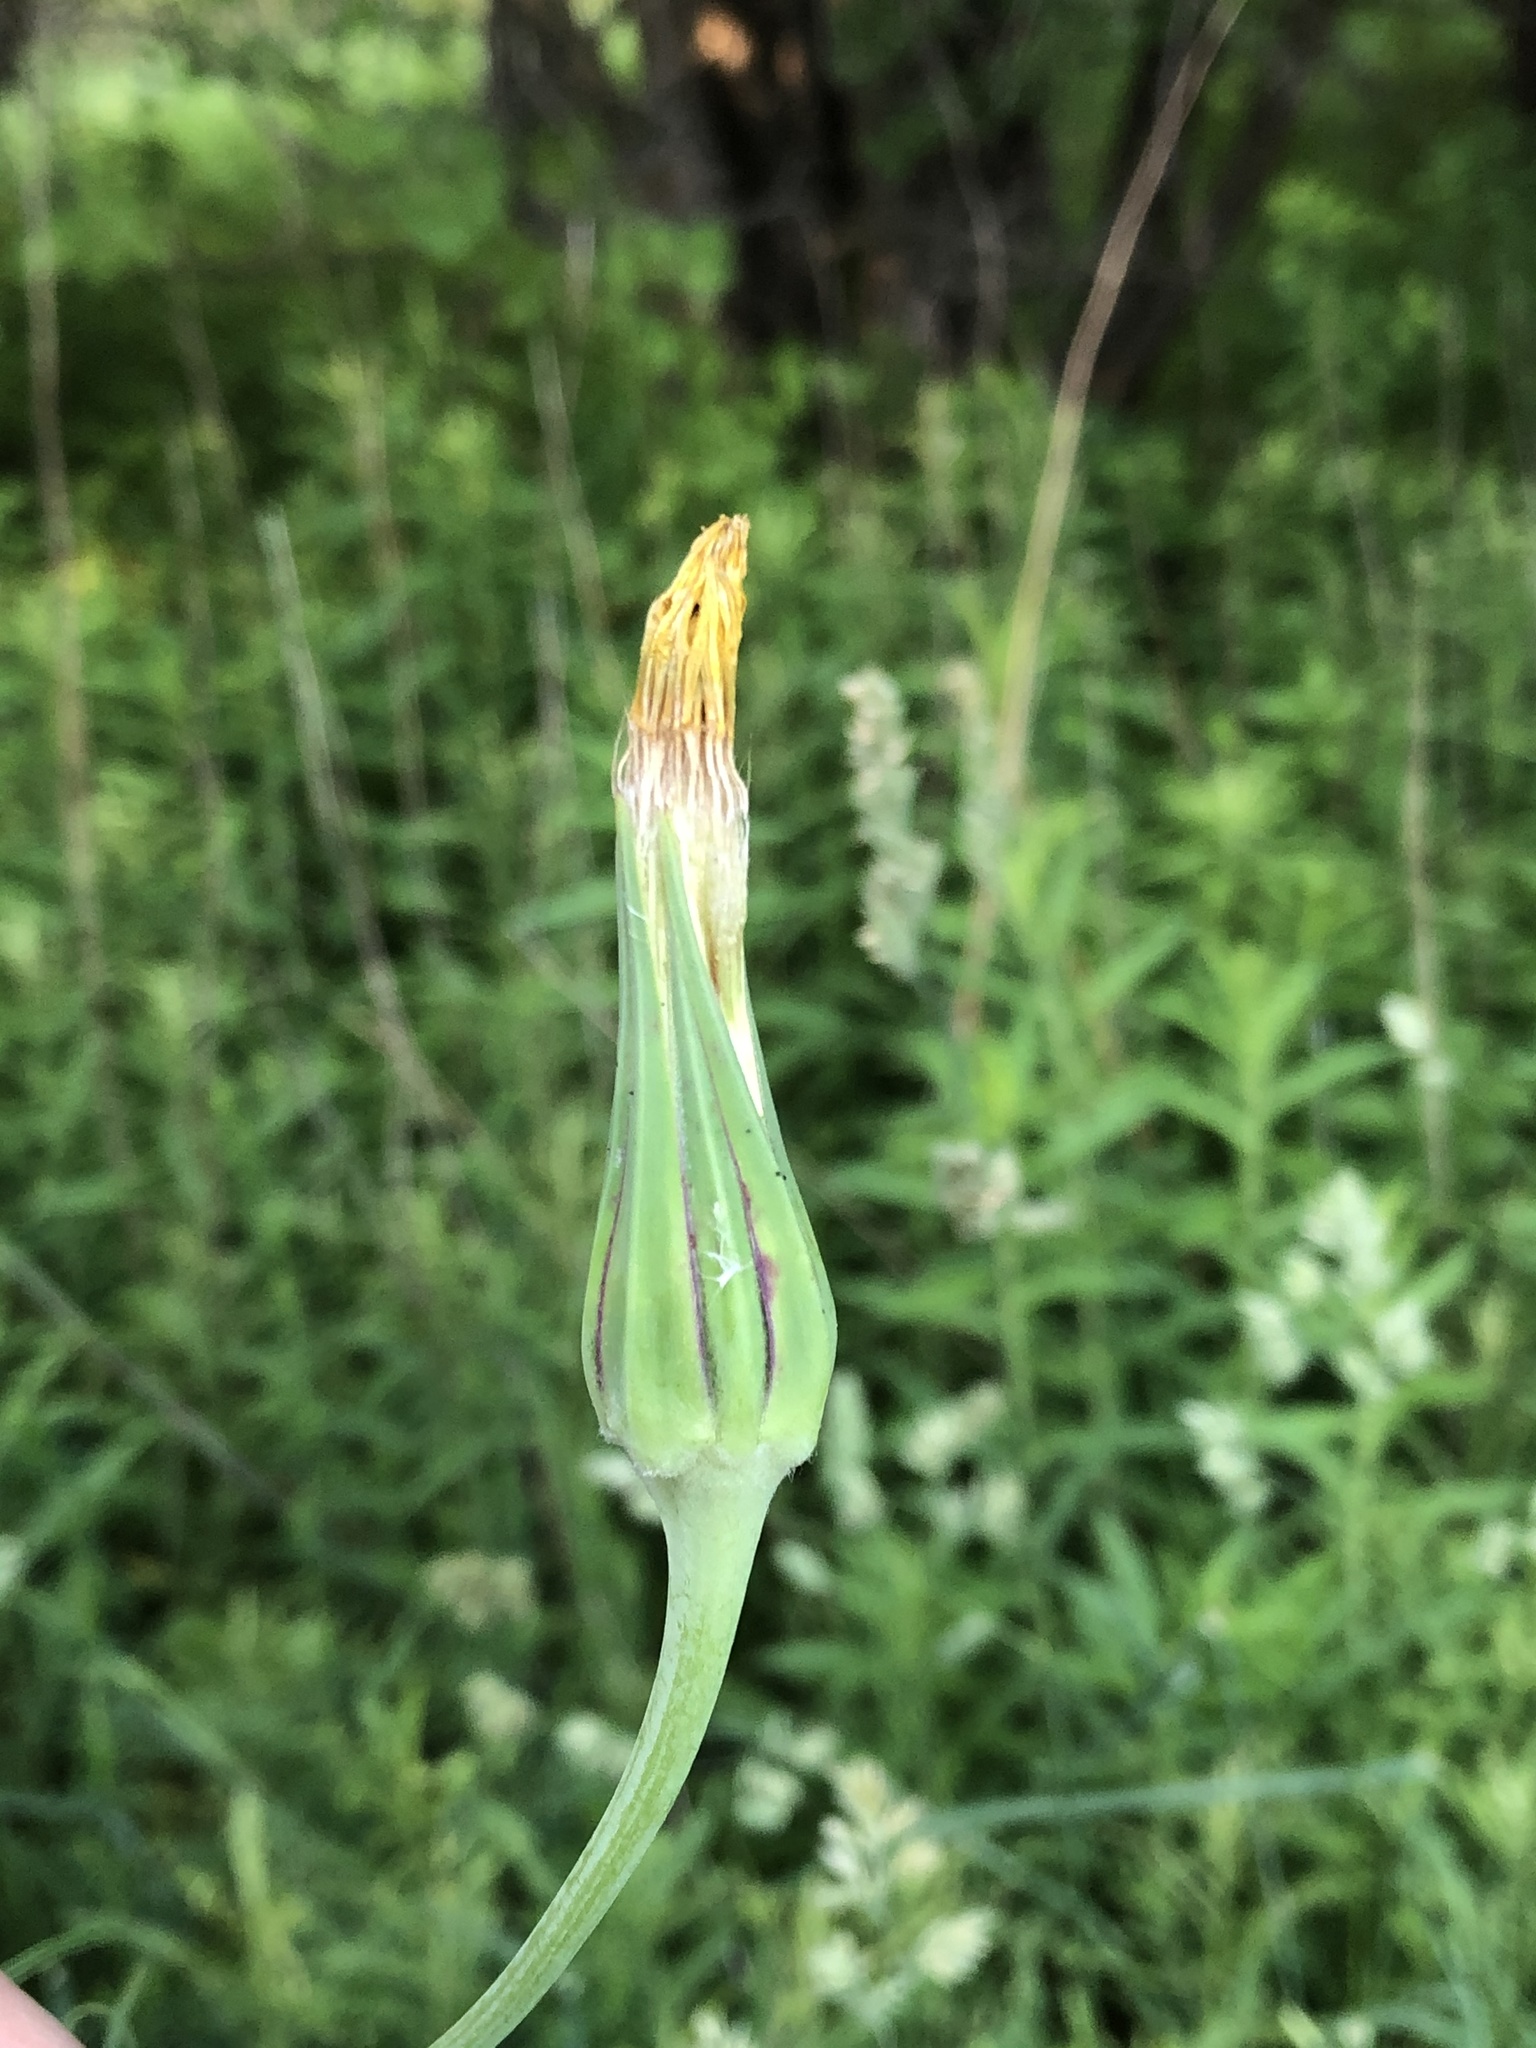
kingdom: Plantae
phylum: Tracheophyta
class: Magnoliopsida
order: Asterales
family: Asteraceae
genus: Tragopogon
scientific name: Tragopogon pratensis
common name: Goat's-beard
